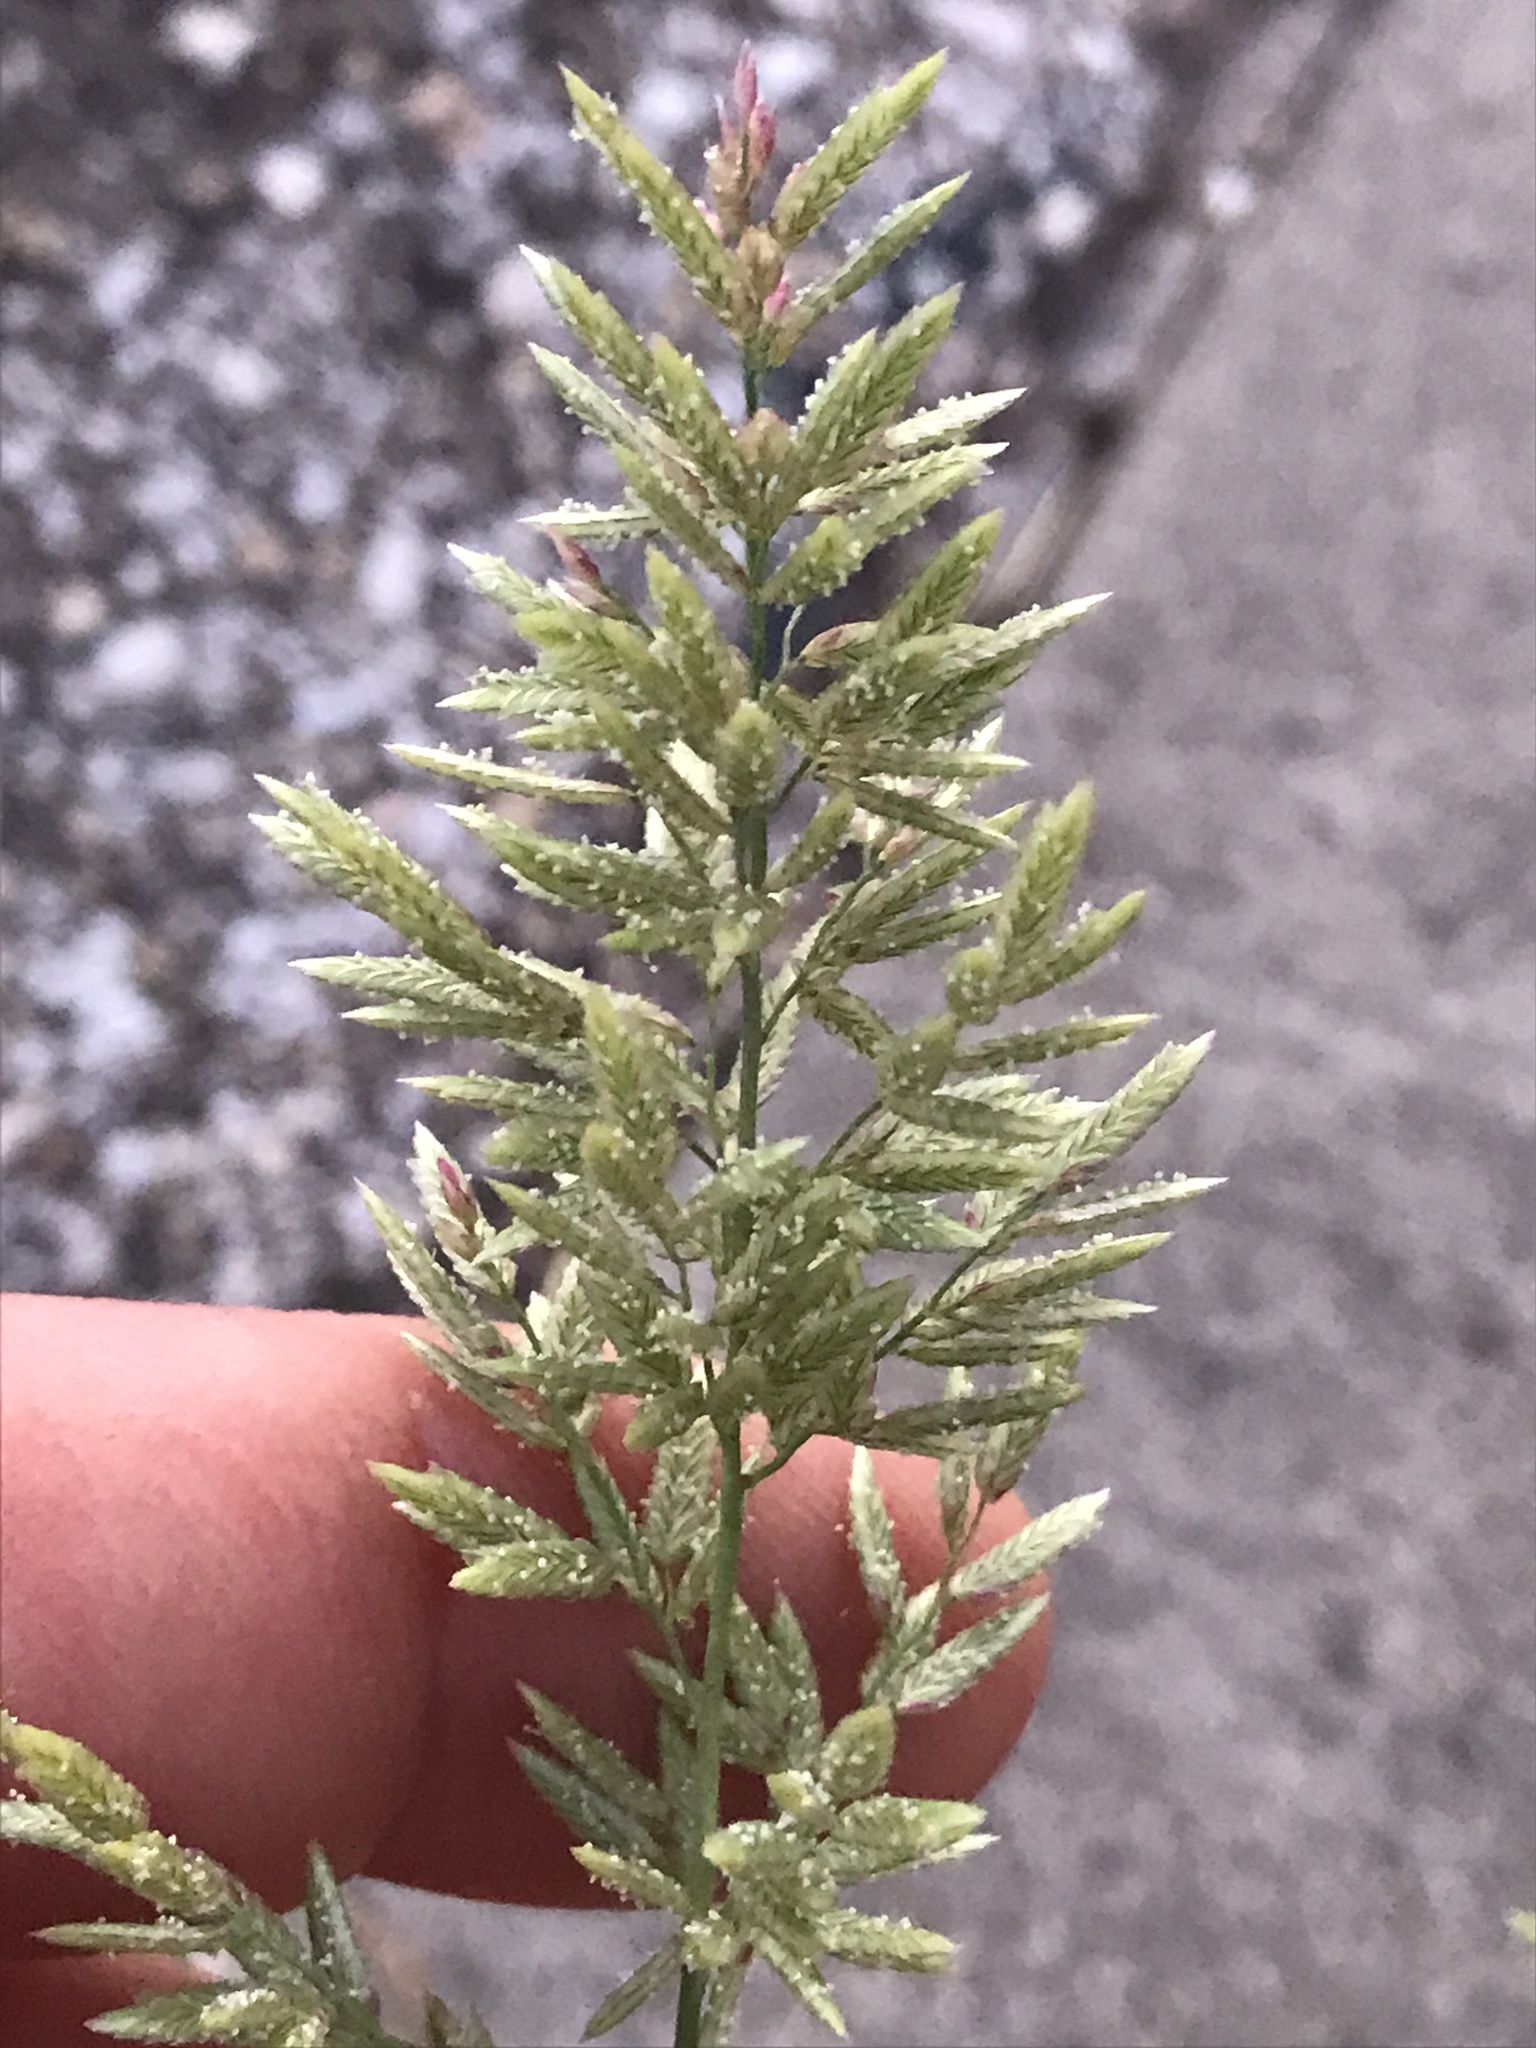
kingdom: Plantae
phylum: Tracheophyta
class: Liliopsida
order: Poales
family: Poaceae
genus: Eragrostis
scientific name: Eragrostis cilianensis
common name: Stinkgrass
